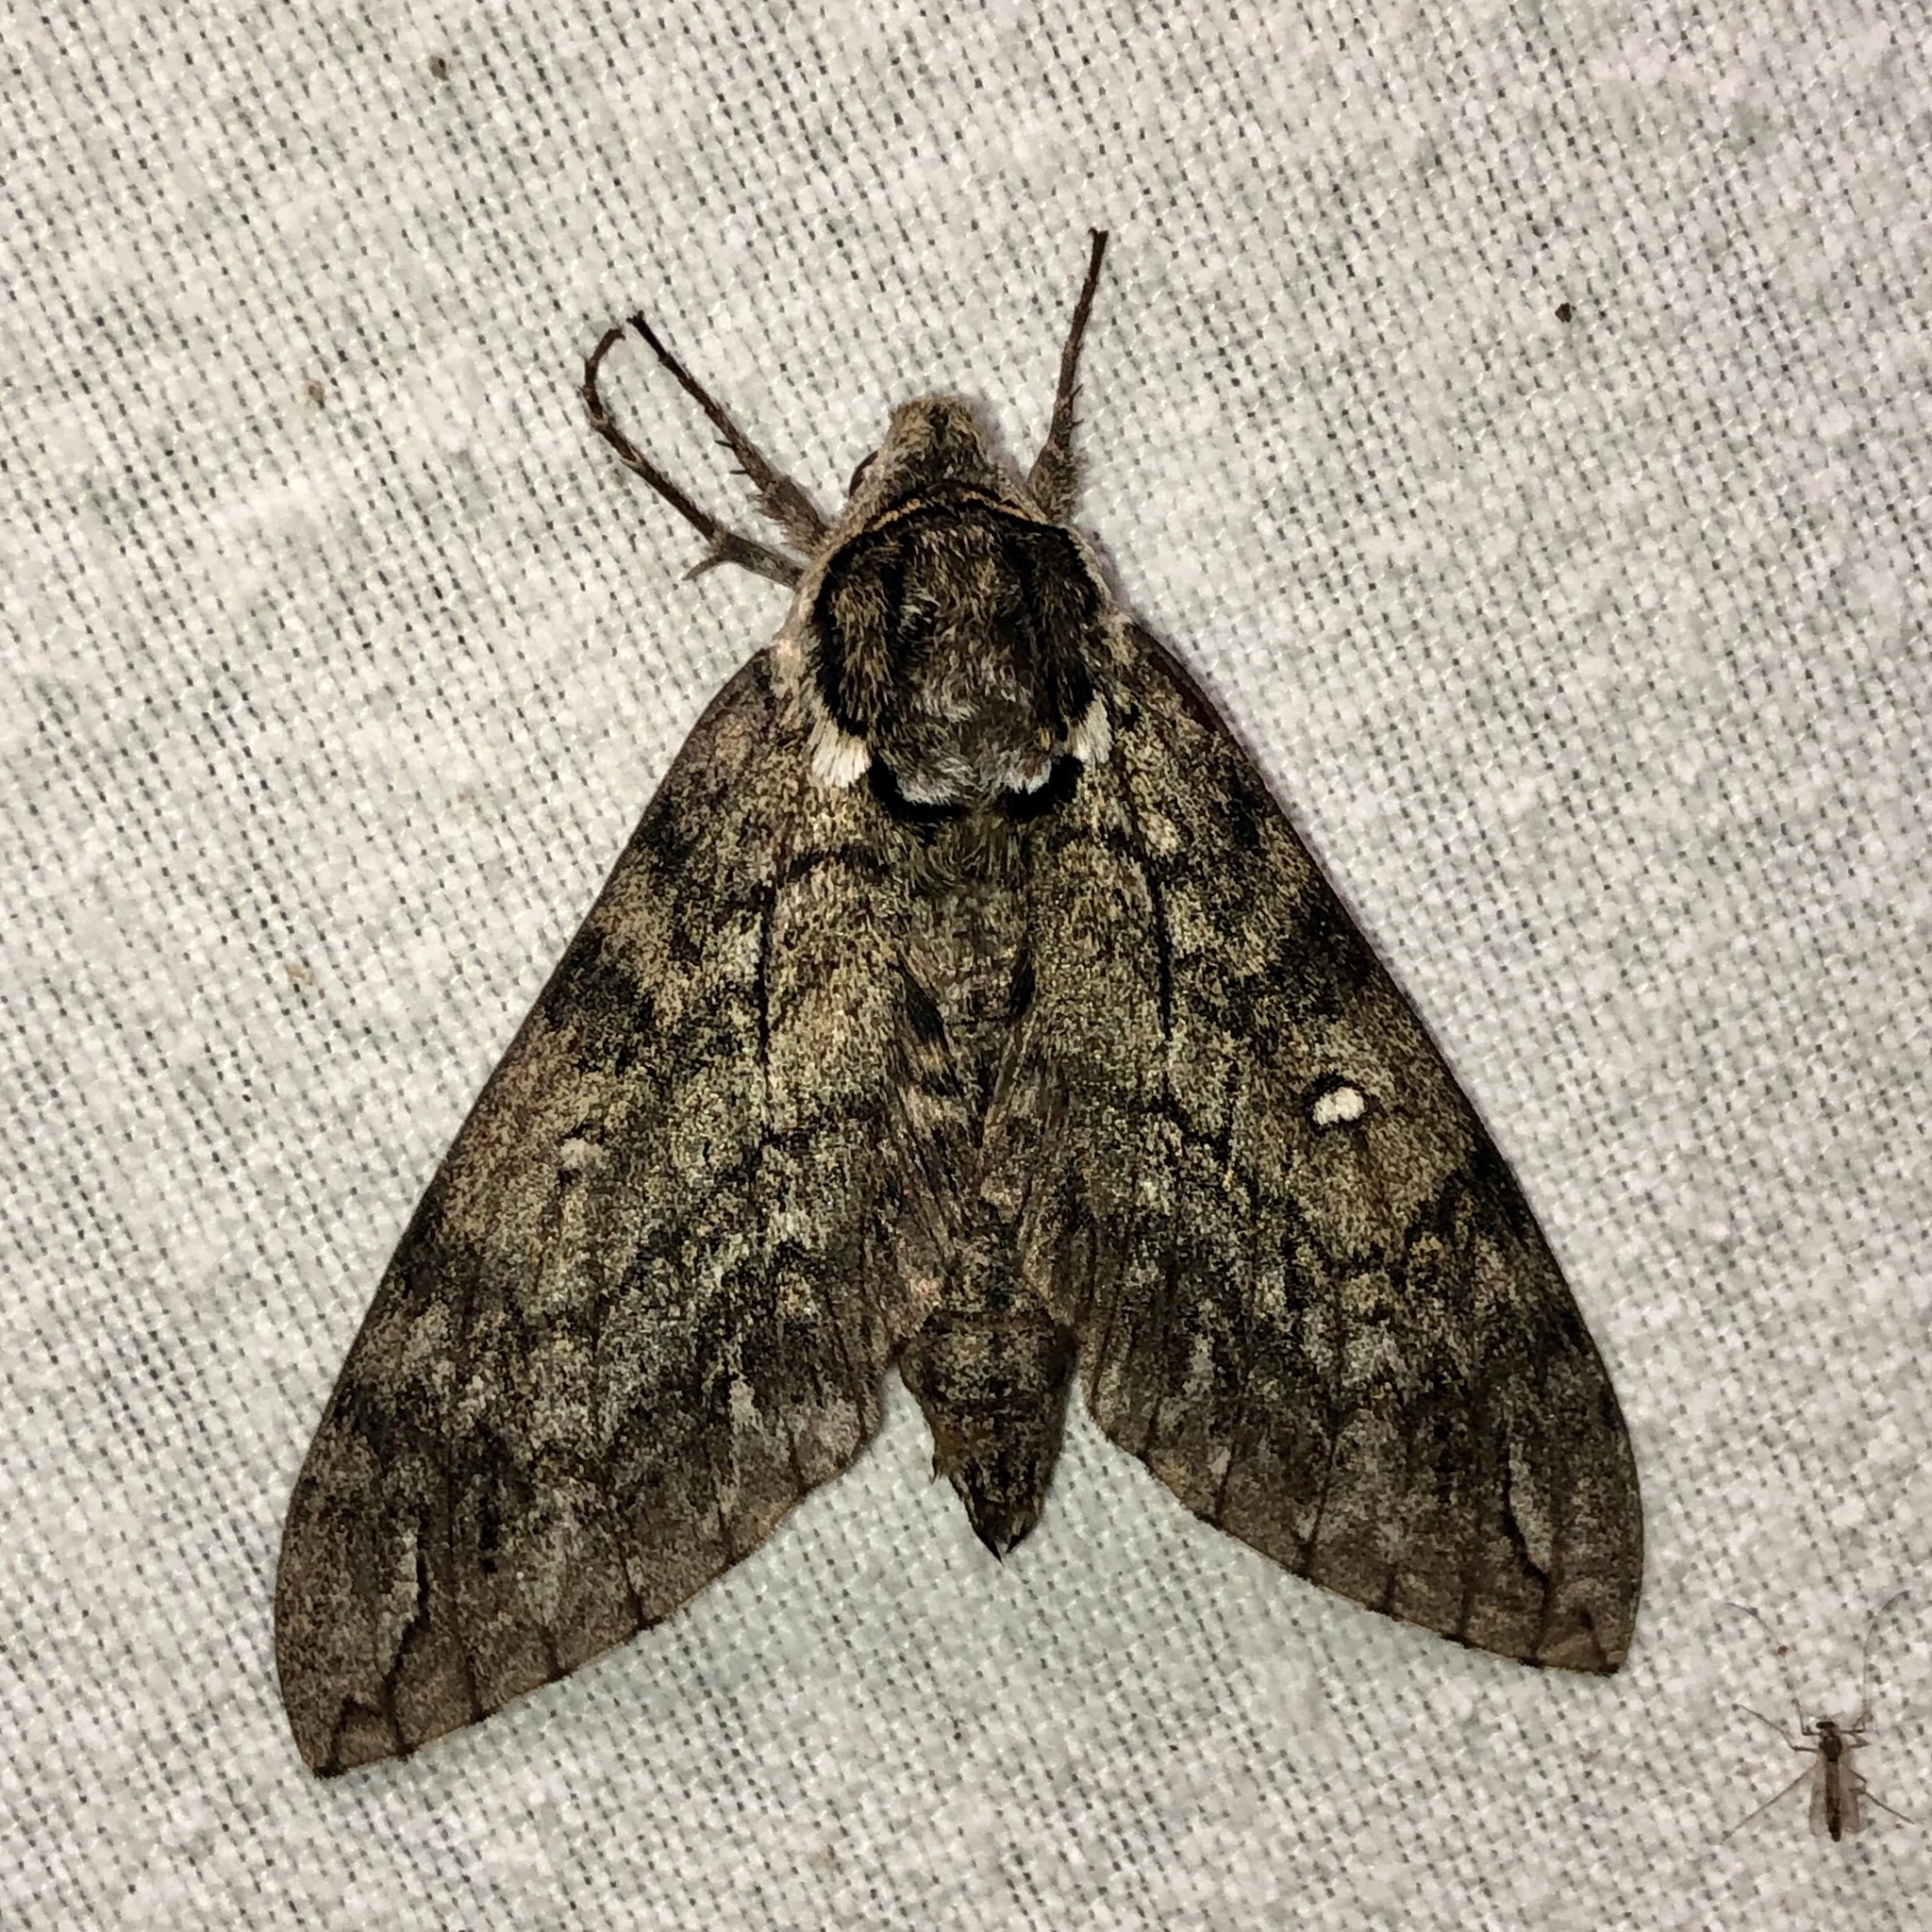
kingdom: Animalia
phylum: Arthropoda
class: Insecta
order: Lepidoptera
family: Sphingidae
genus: Ceratomia
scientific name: Ceratomia undulosa
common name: Waved sphinx
